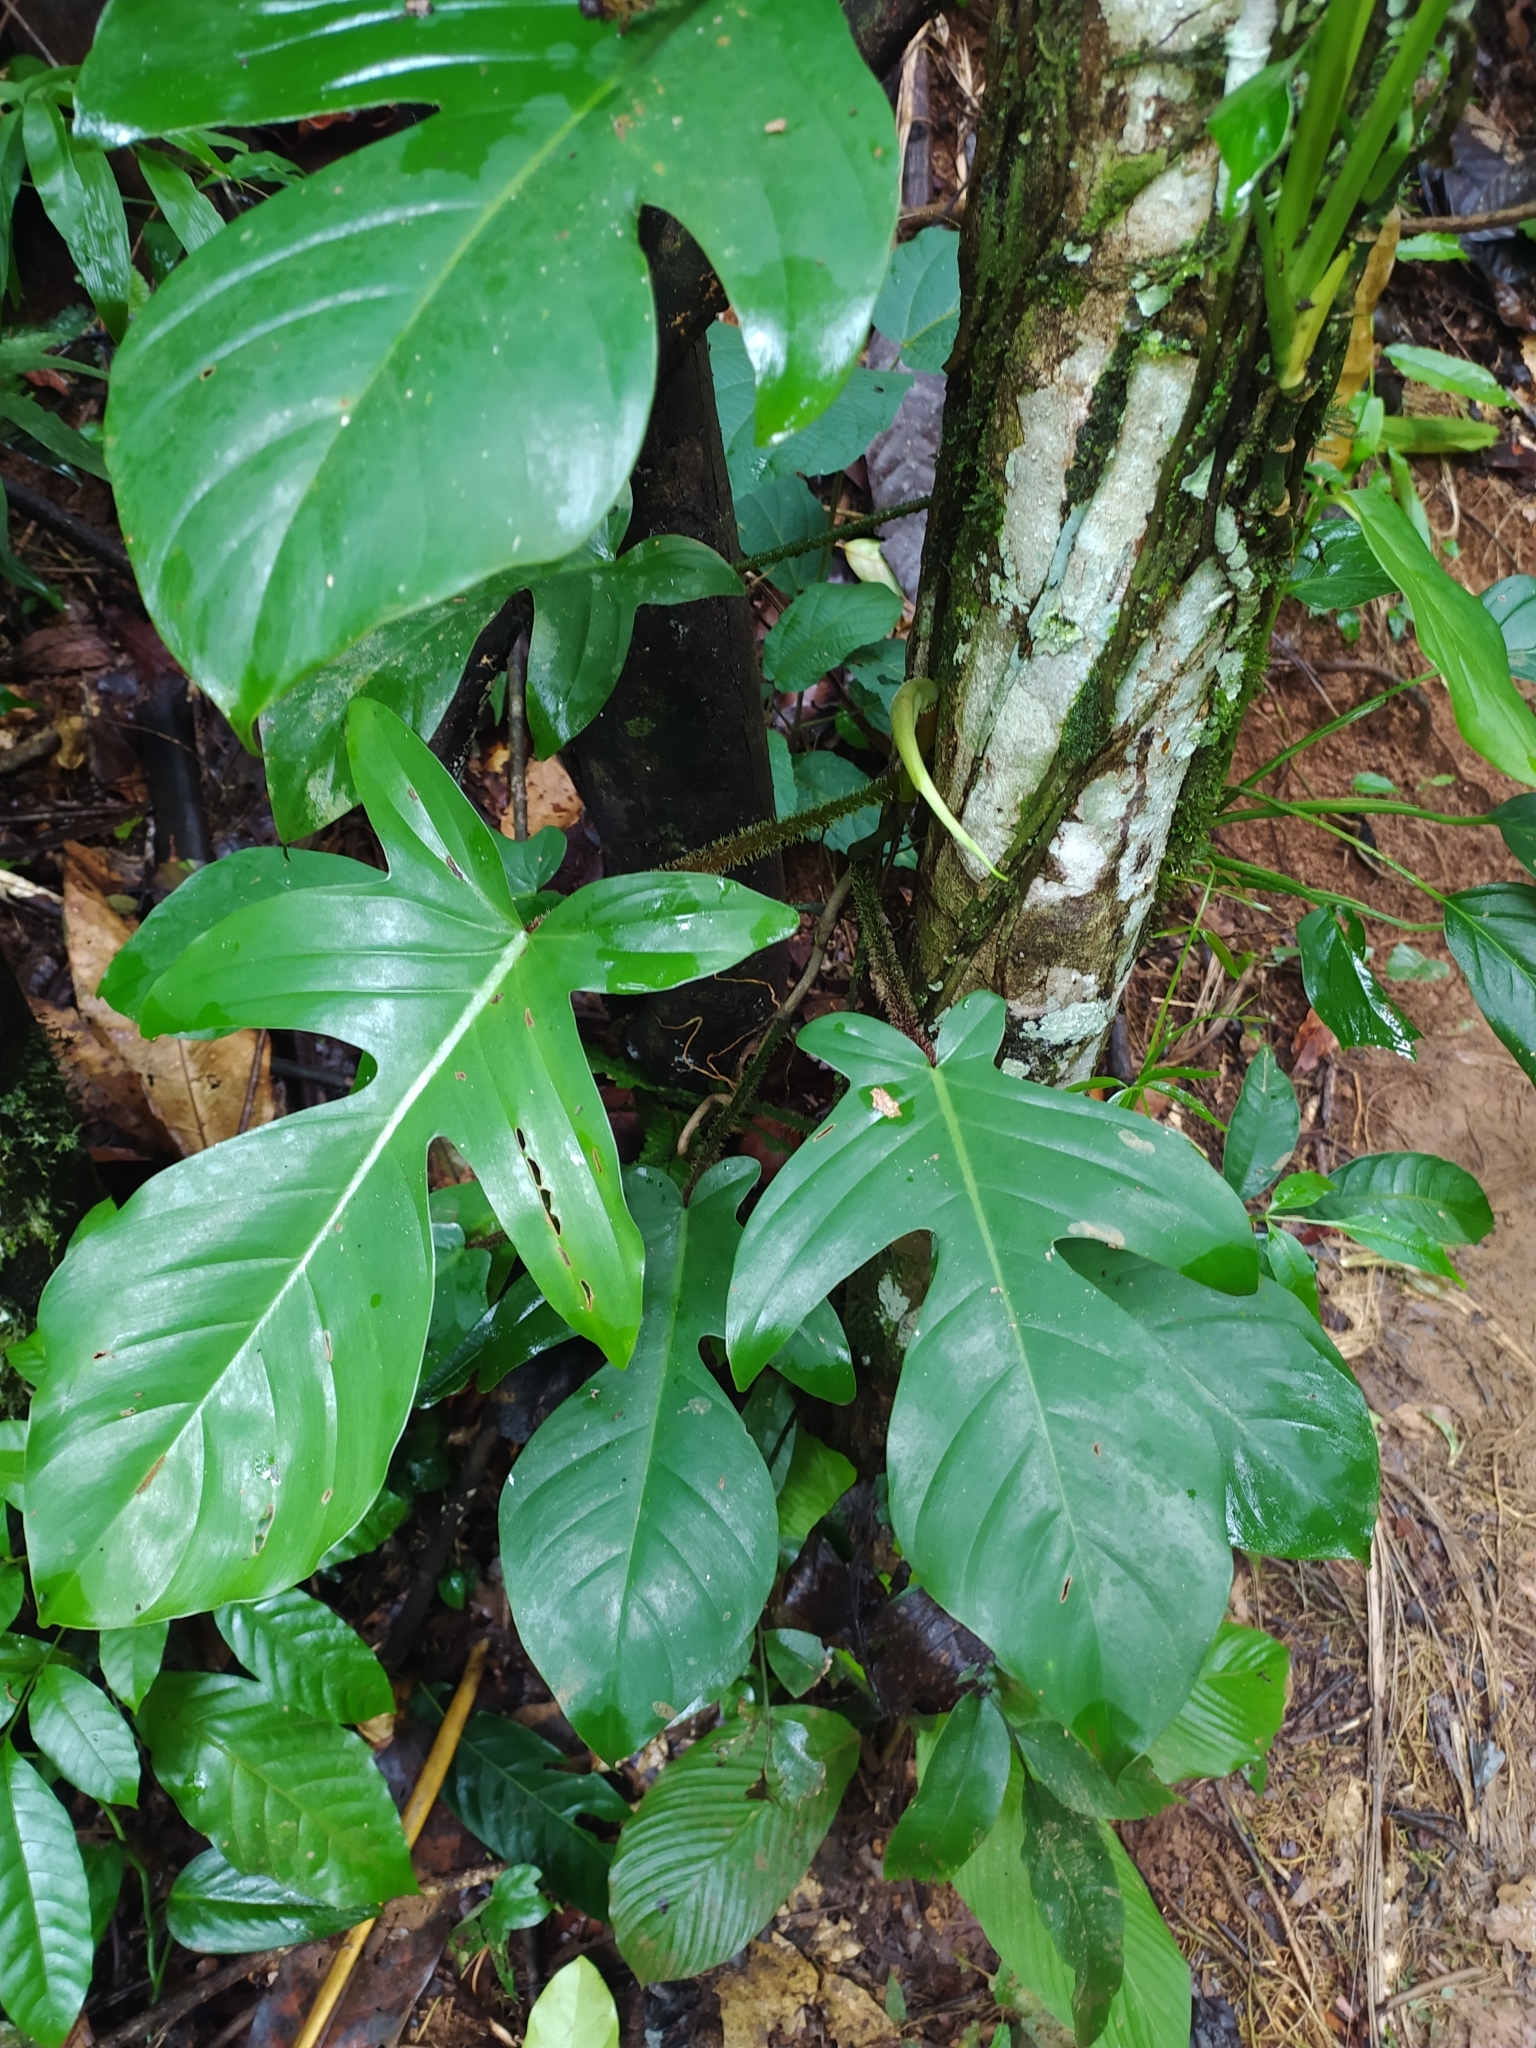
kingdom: Plantae
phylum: Tracheophyta
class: Liliopsida
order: Alismatales
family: Araceae
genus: Philodendron
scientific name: Philodendron squamiferum
